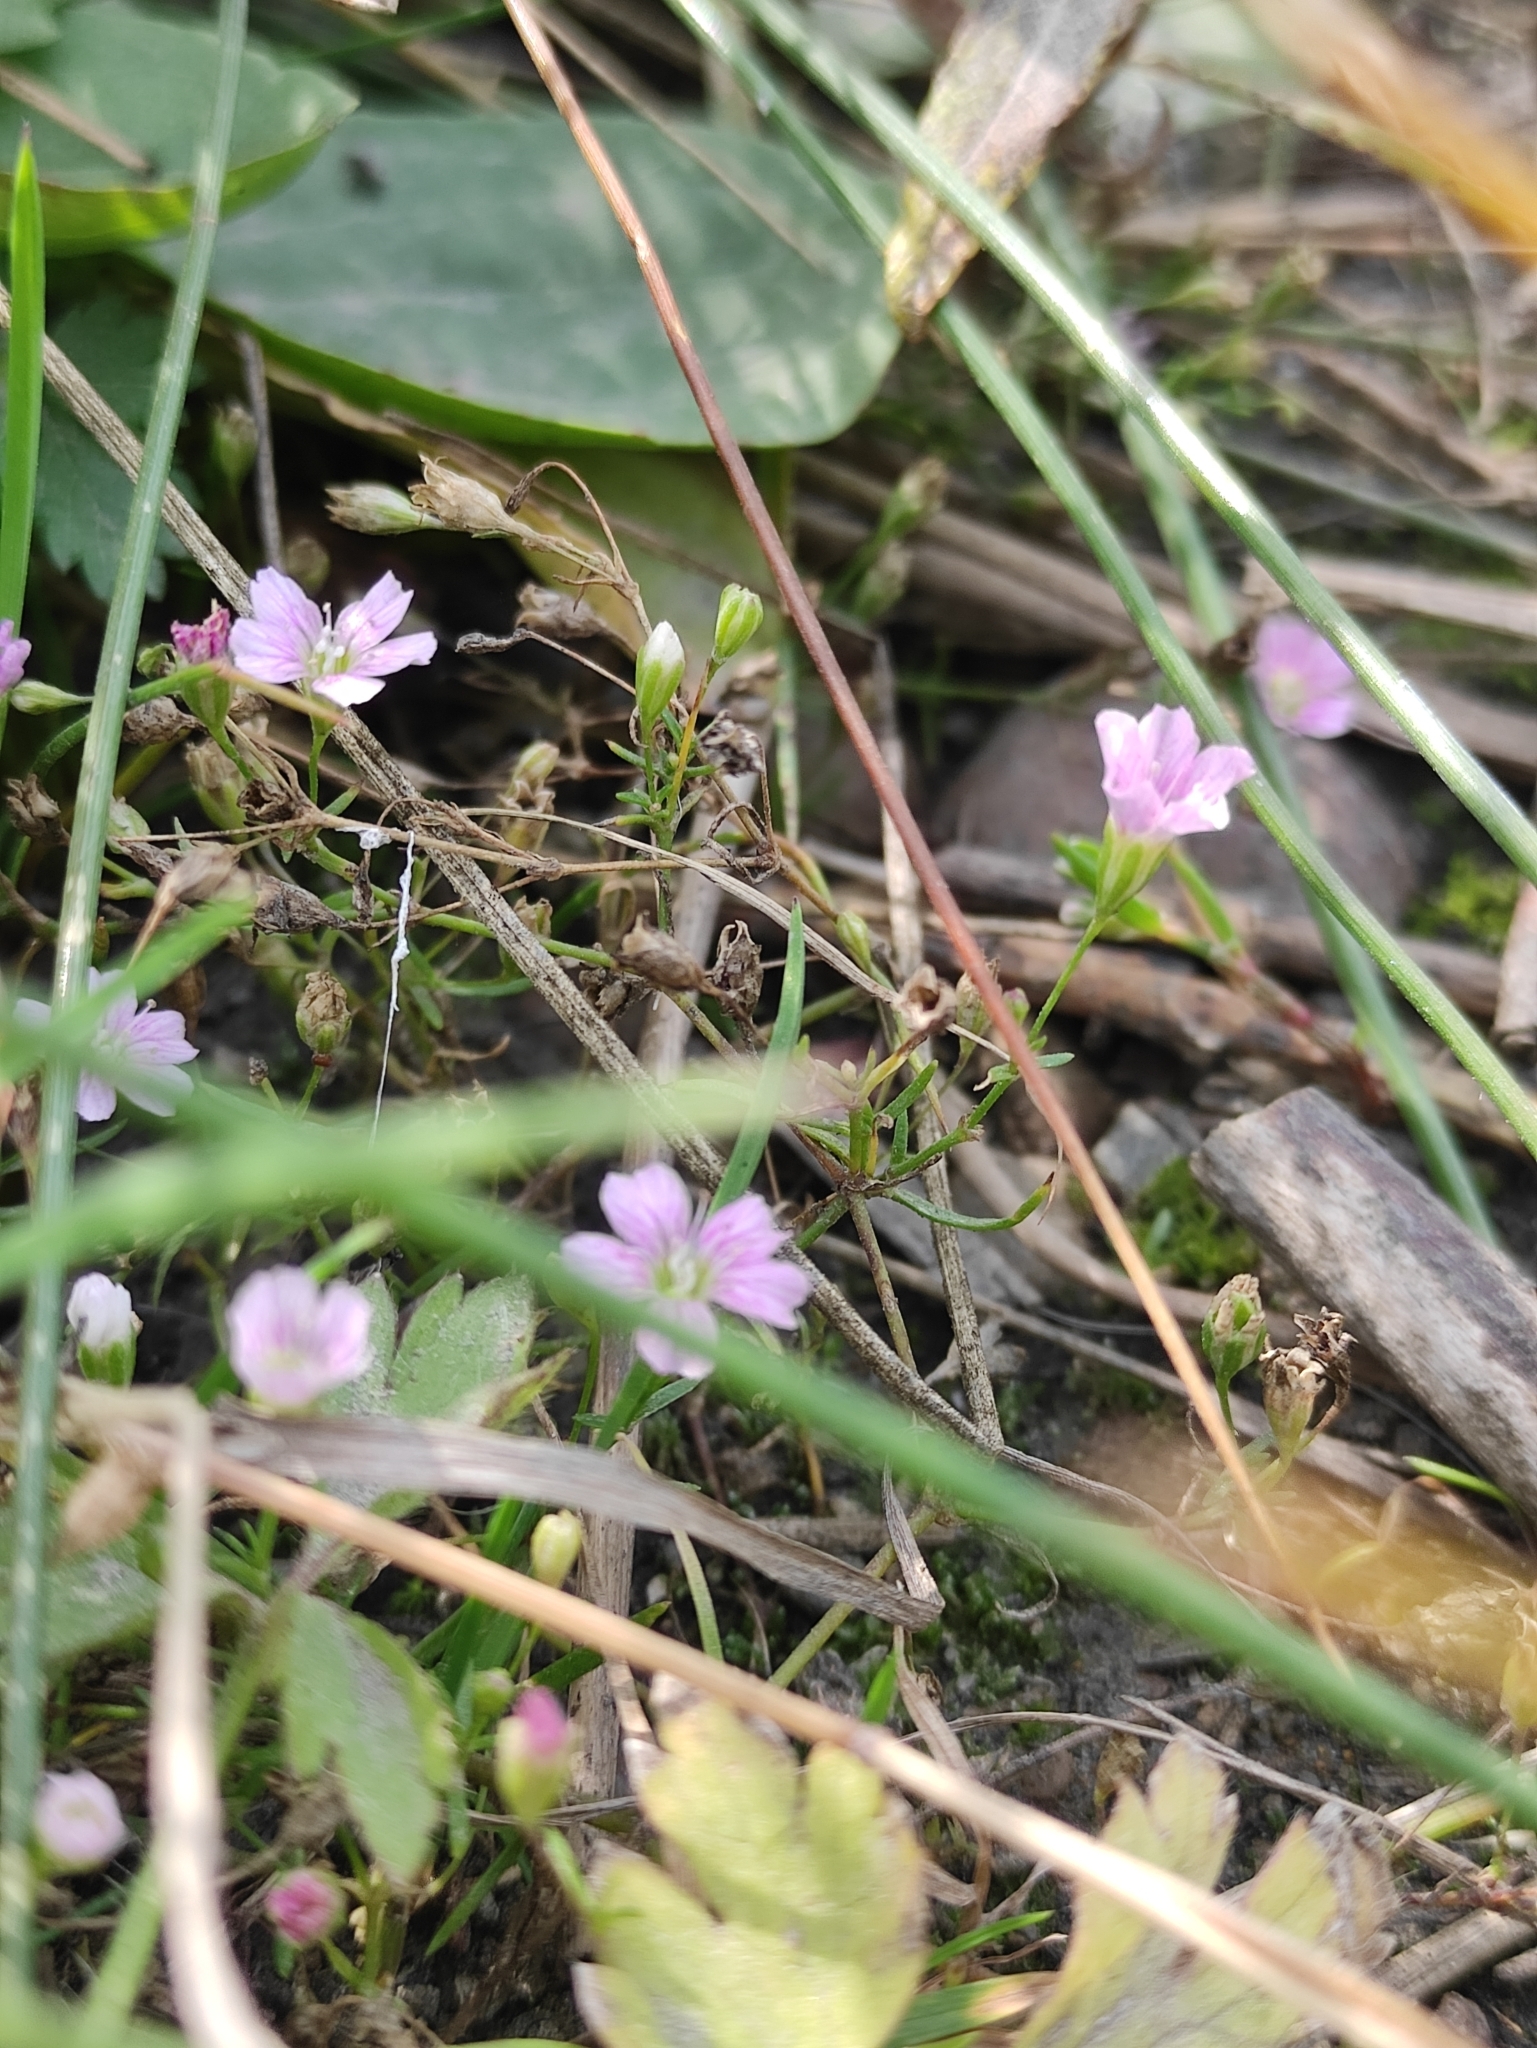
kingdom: Plantae
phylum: Tracheophyta
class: Magnoliopsida
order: Caryophyllales
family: Caryophyllaceae
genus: Psammophiliella
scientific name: Psammophiliella muralis
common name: Cushion baby's-breath
